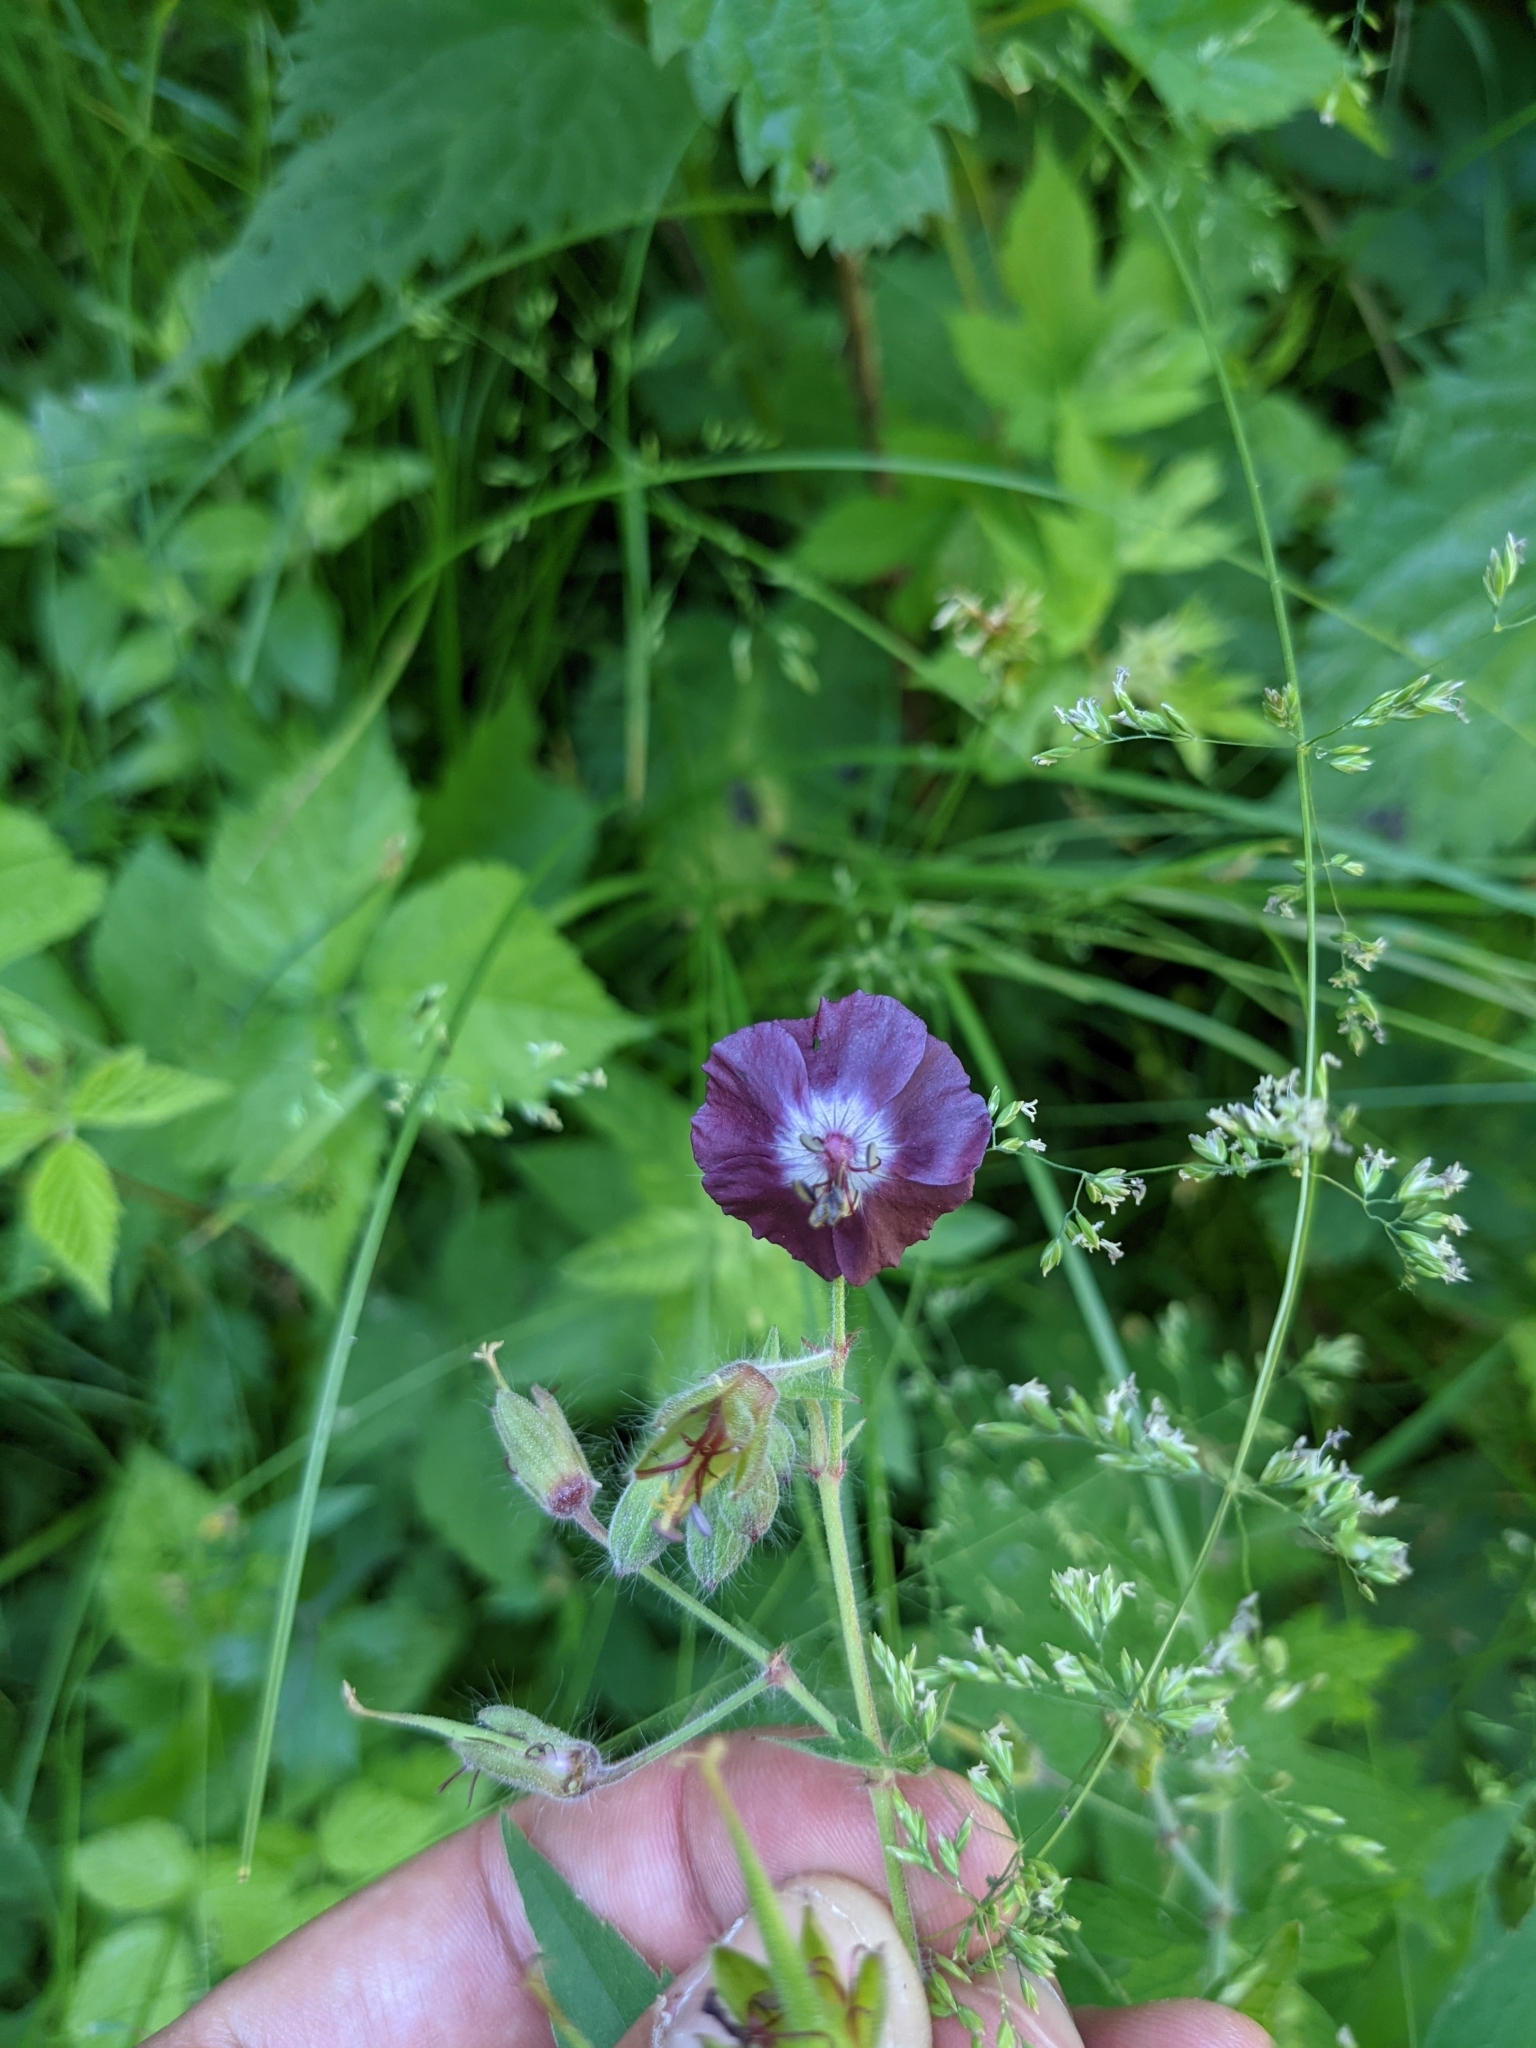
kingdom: Plantae
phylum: Tracheophyta
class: Magnoliopsida
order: Geraniales
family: Geraniaceae
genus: Geranium
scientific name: Geranium phaeum
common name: Dusky crane's-bill
